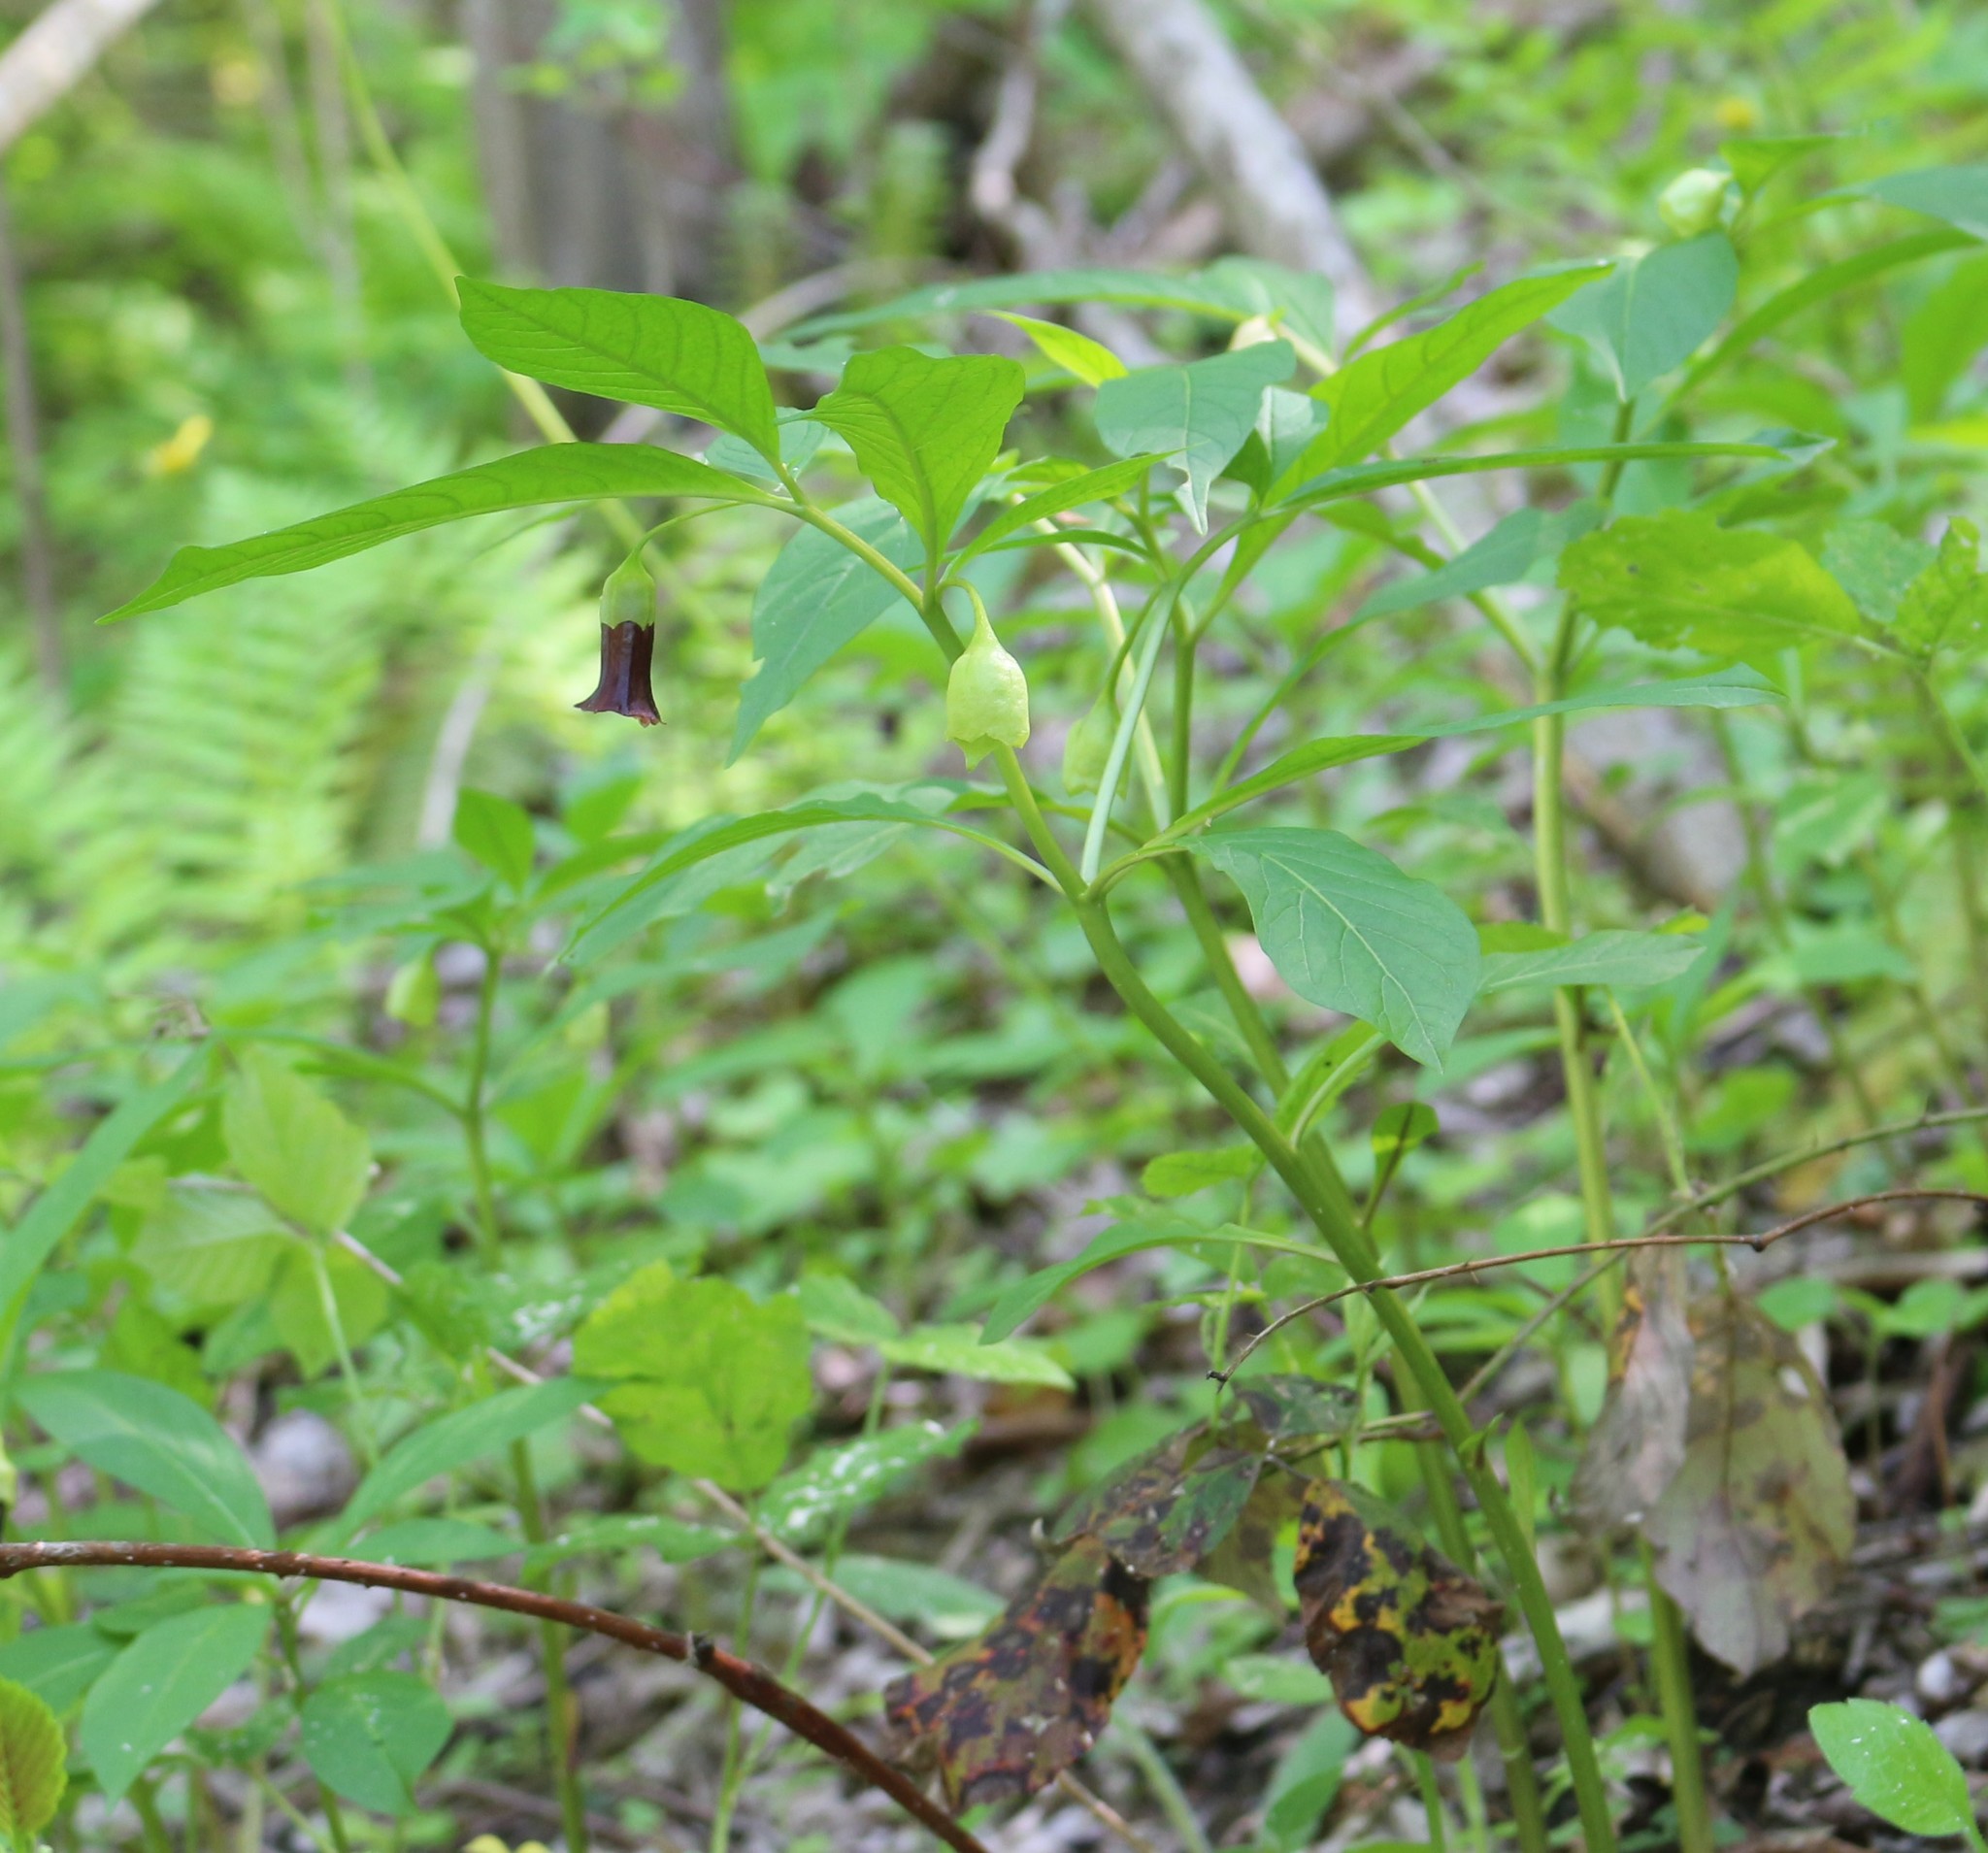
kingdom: Plantae
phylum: Tracheophyta
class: Magnoliopsida
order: Solanales
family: Solanaceae
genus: Scopolia
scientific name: Scopolia carniolica
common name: Scopolia
